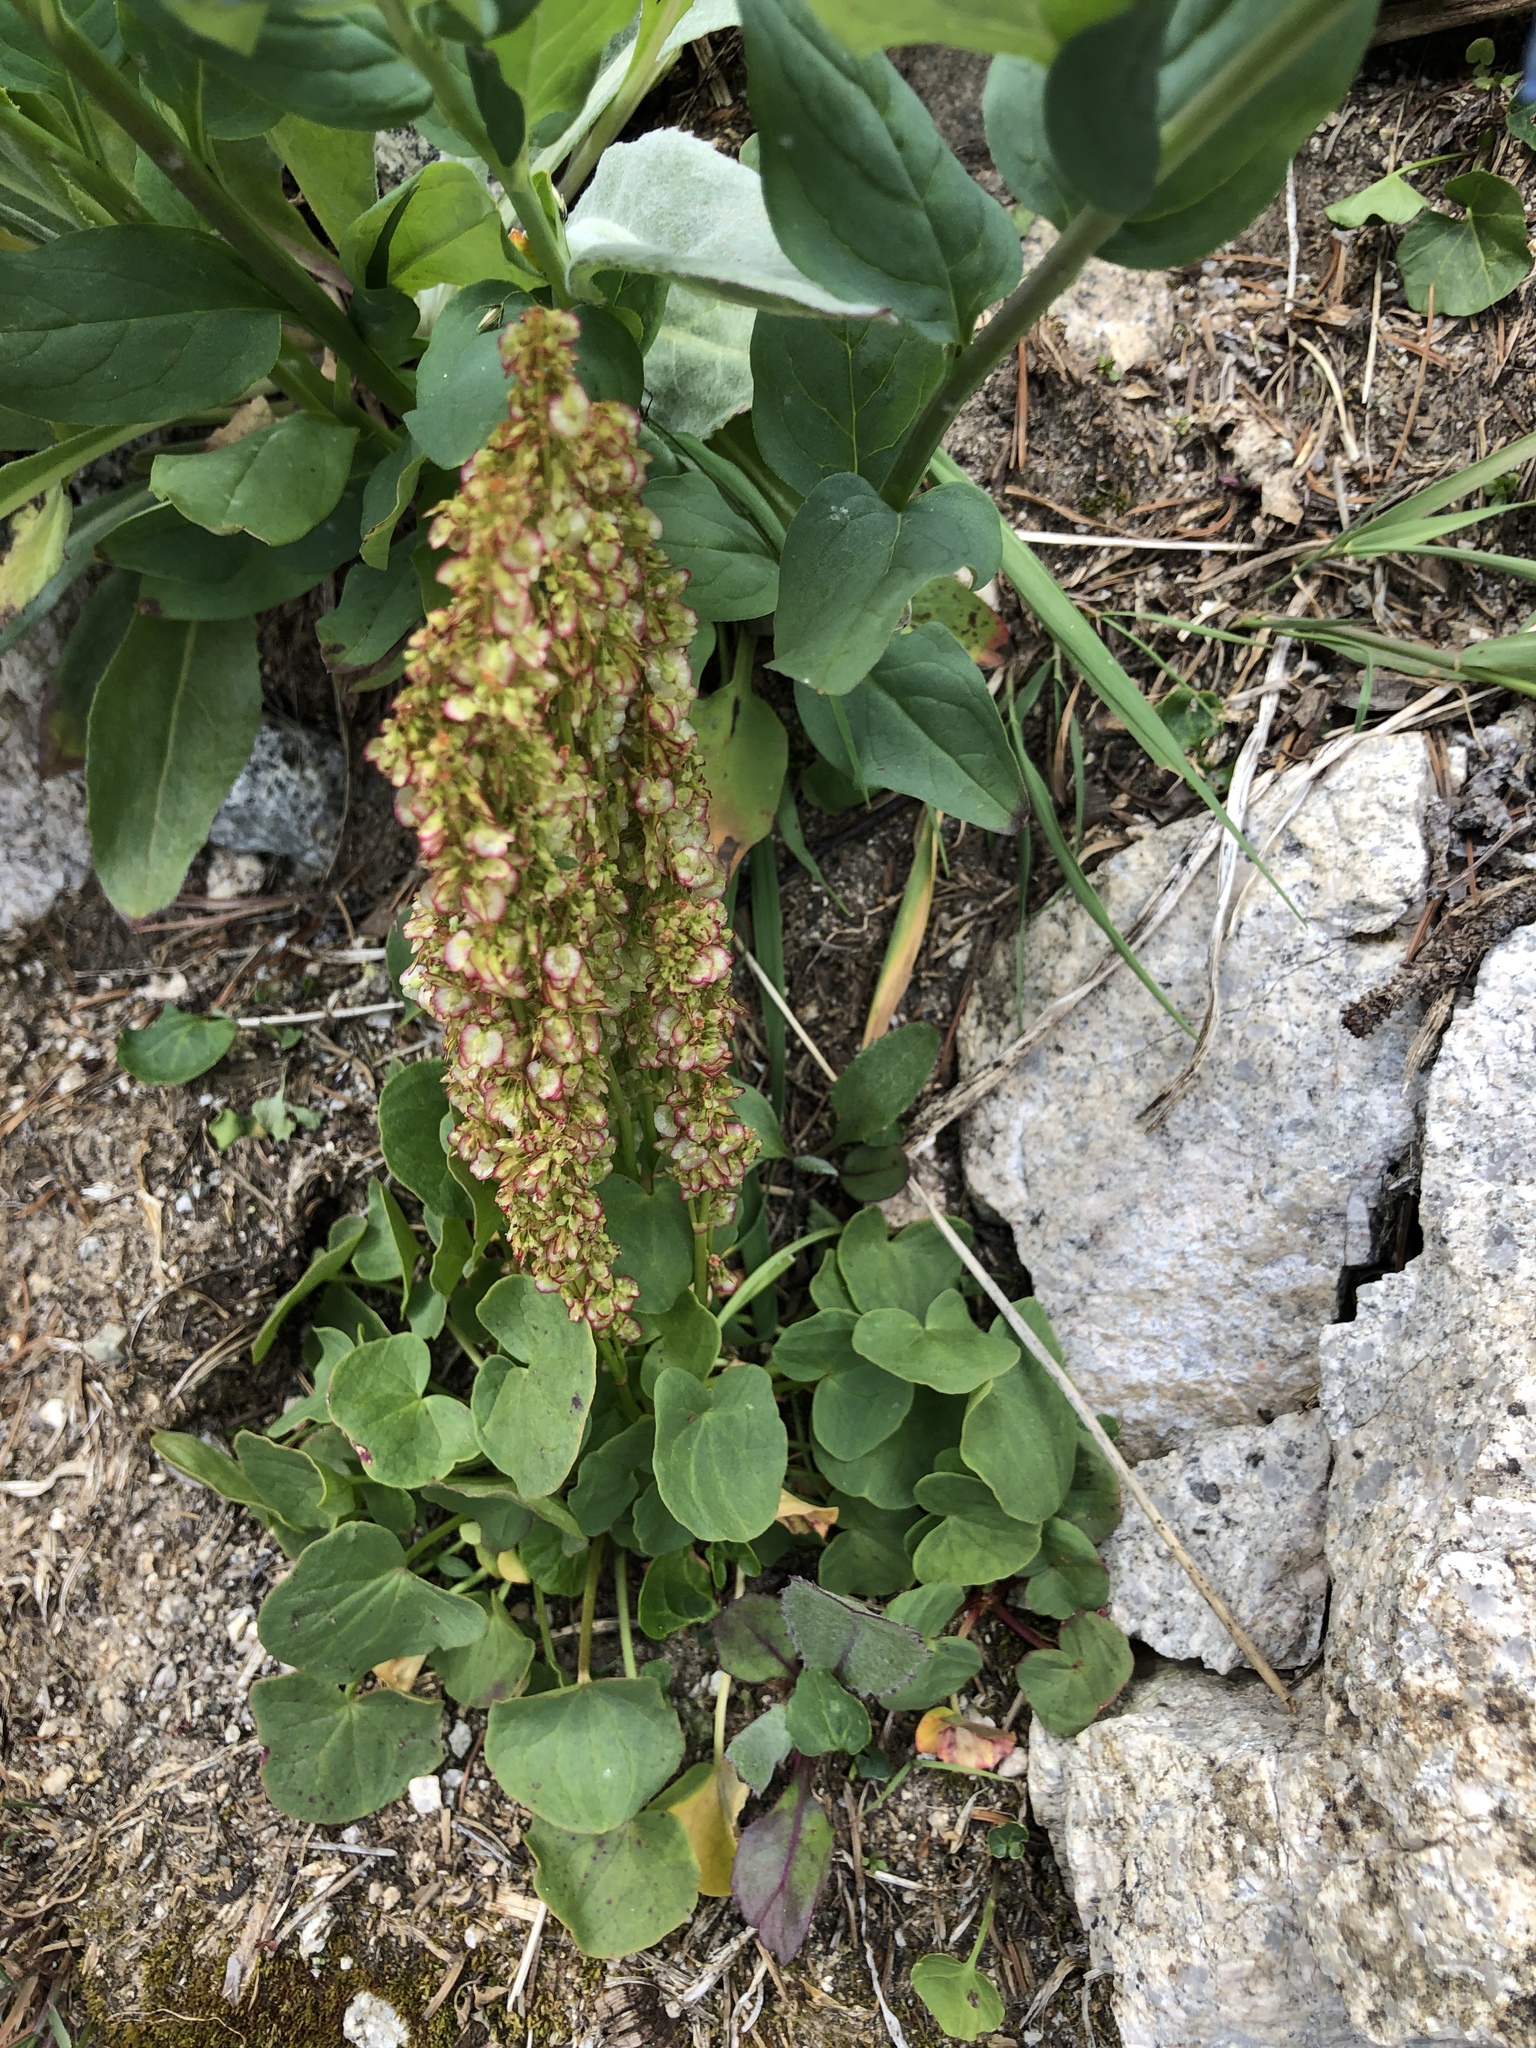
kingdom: Plantae
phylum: Tracheophyta
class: Magnoliopsida
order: Caryophyllales
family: Polygonaceae
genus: Oxyria
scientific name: Oxyria digyna
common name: Alpine mountain-sorrel
